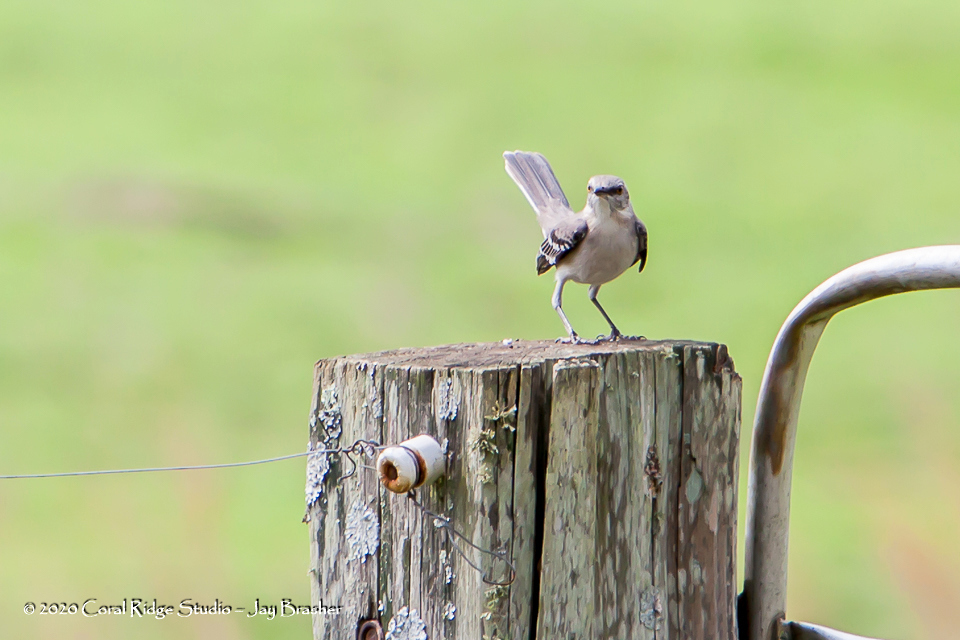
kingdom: Animalia
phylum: Chordata
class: Aves
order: Passeriformes
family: Mimidae
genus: Mimus
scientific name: Mimus polyglottos
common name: Northern mockingbird
